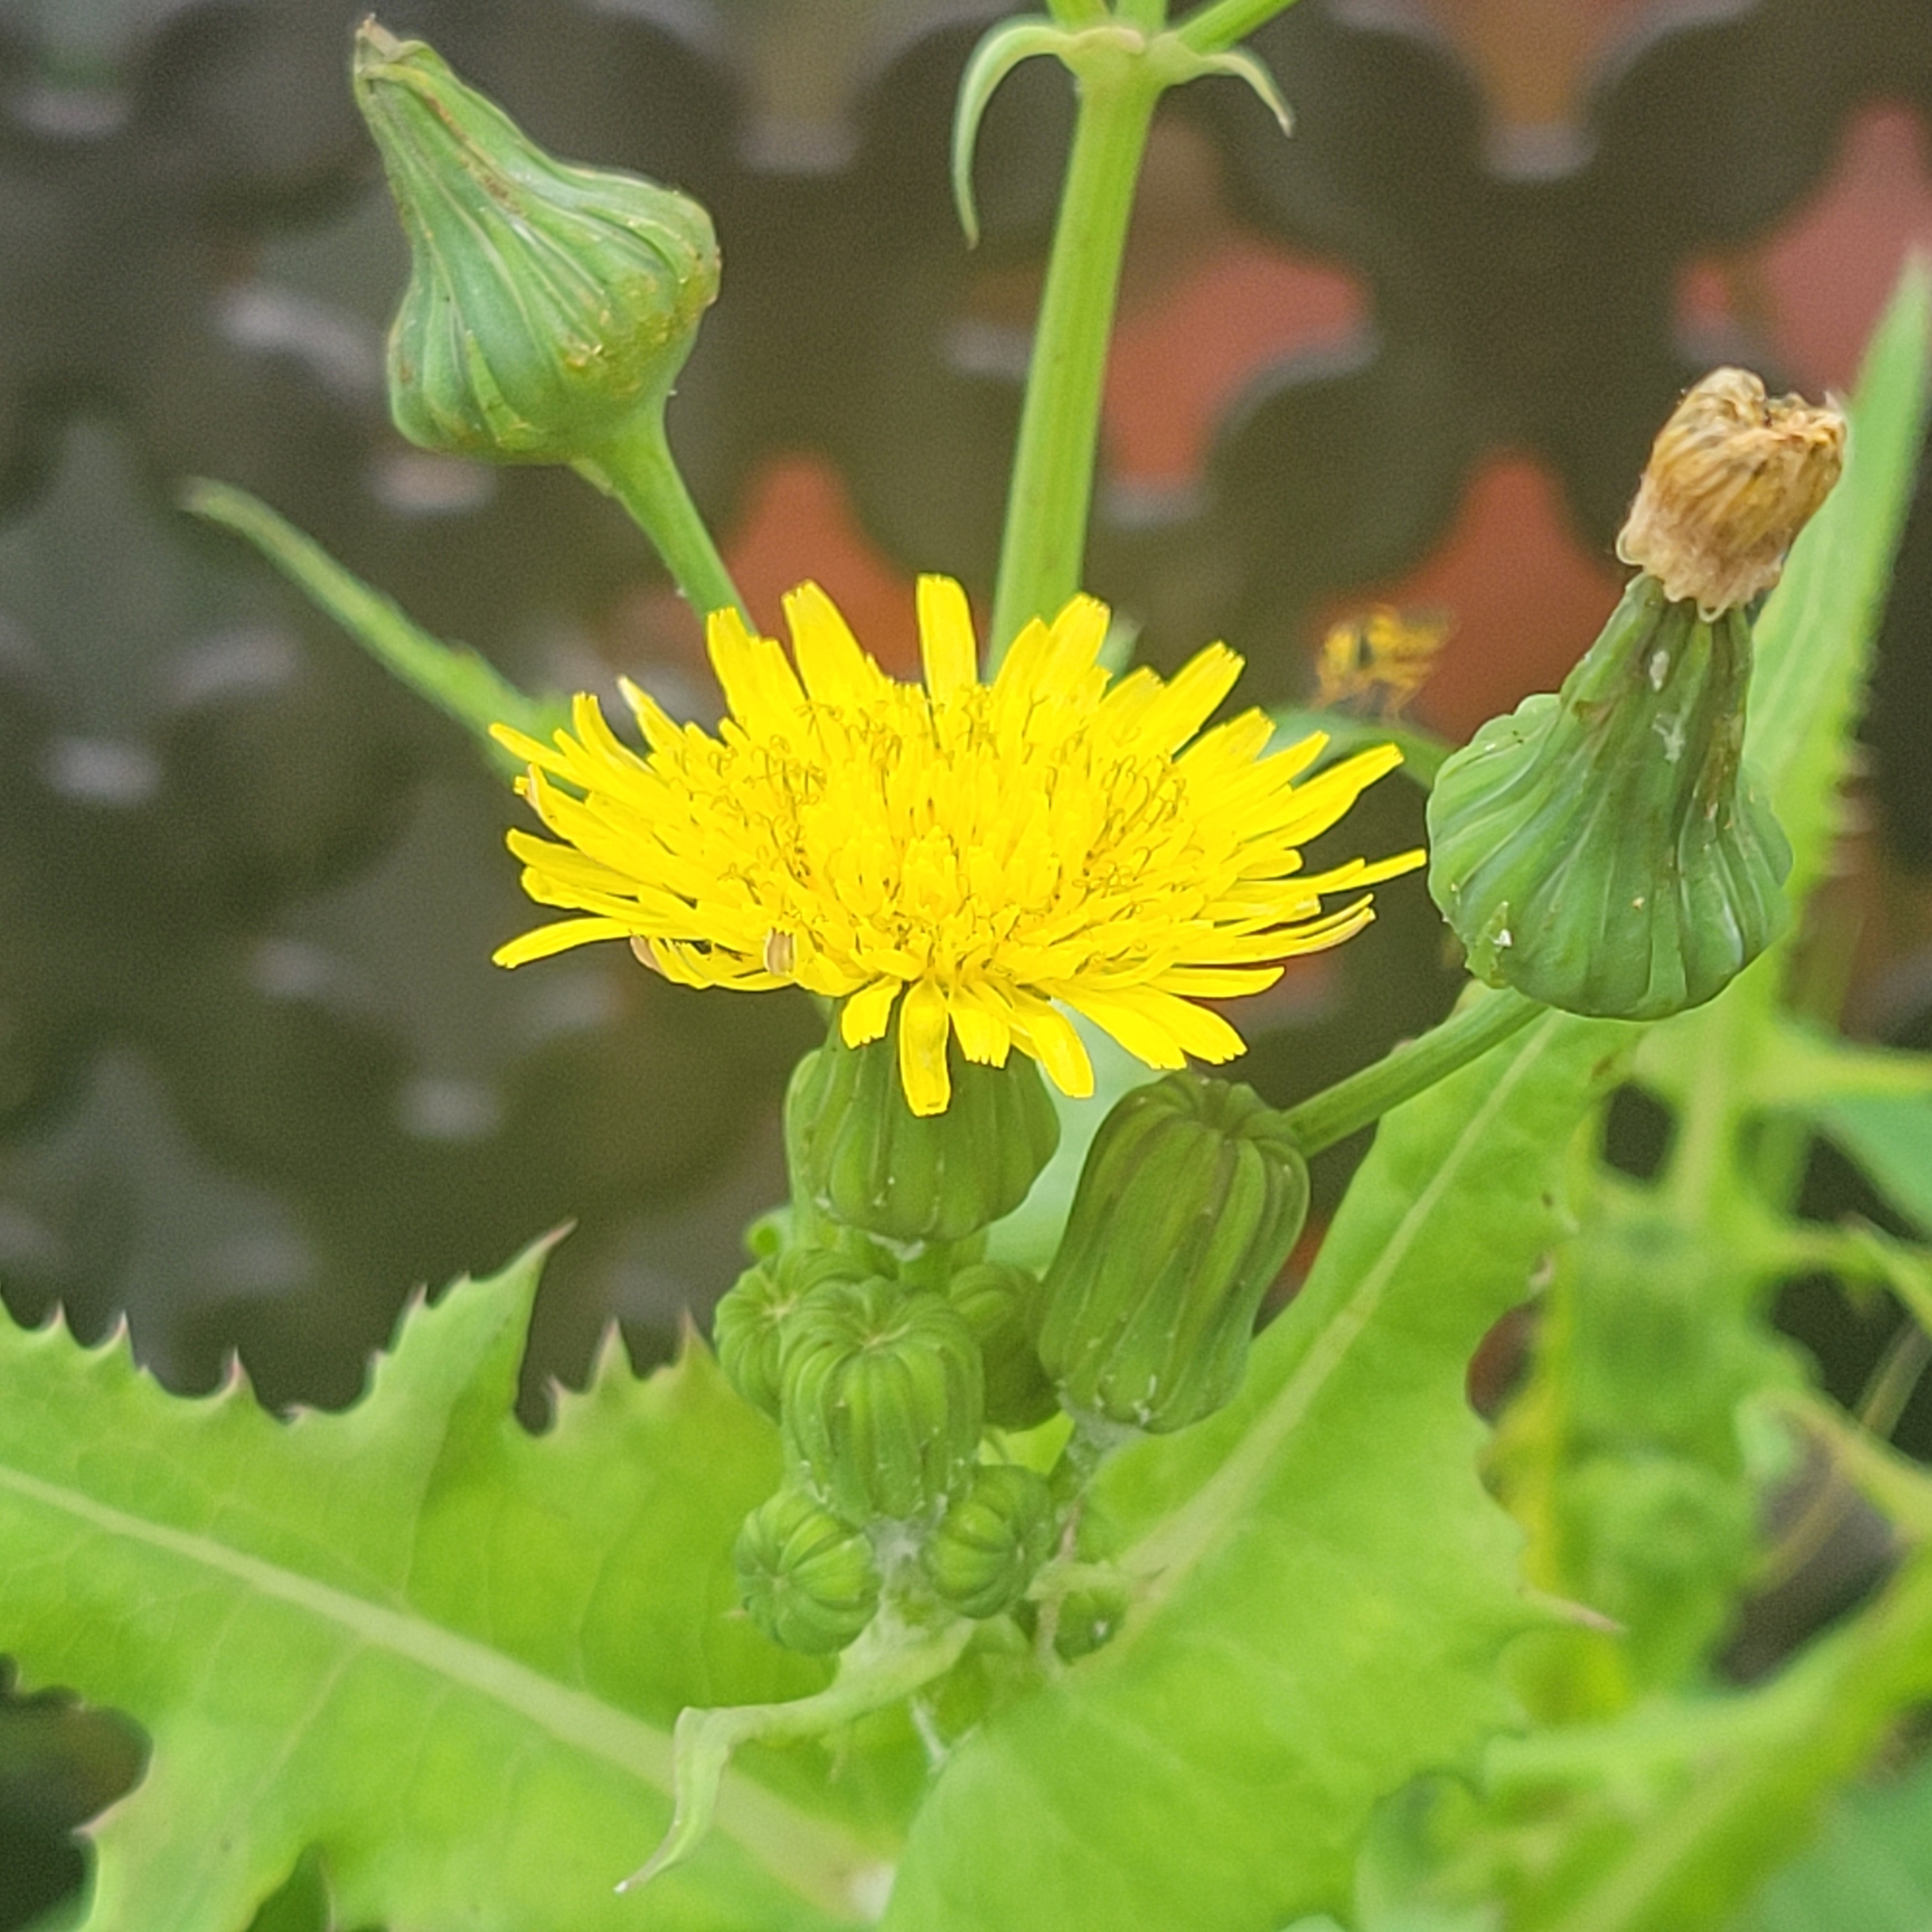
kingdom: Plantae
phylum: Tracheophyta
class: Magnoliopsida
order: Asterales
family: Asteraceae
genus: Sonchus
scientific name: Sonchus oleraceus
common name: Common sowthistle
